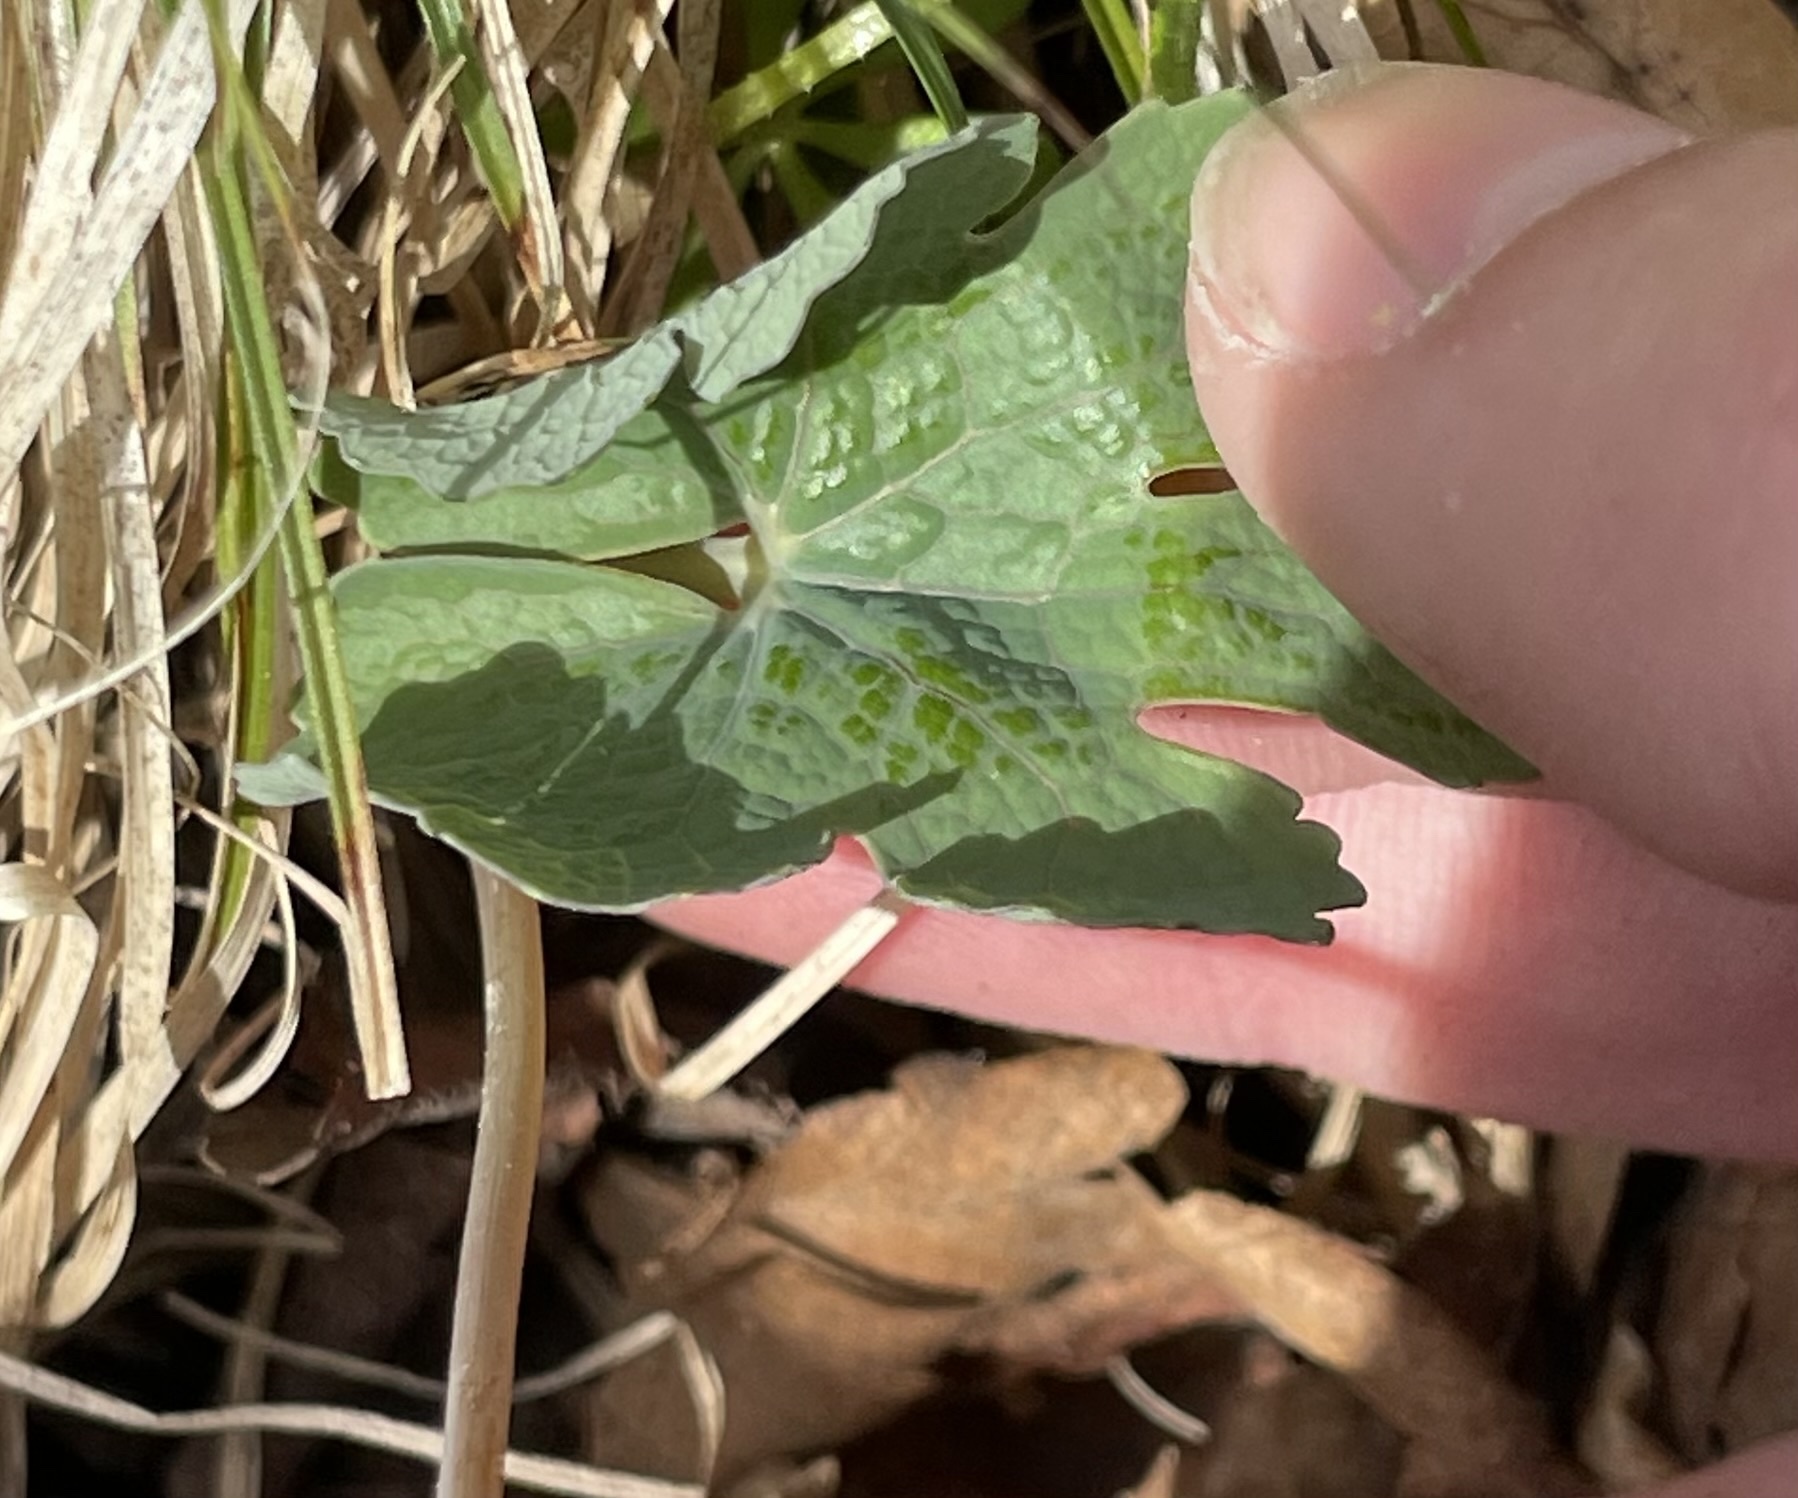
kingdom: Plantae
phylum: Tracheophyta
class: Magnoliopsida
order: Ranunculales
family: Papaveraceae
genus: Sanguinaria
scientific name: Sanguinaria canadensis
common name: Bloodroot
